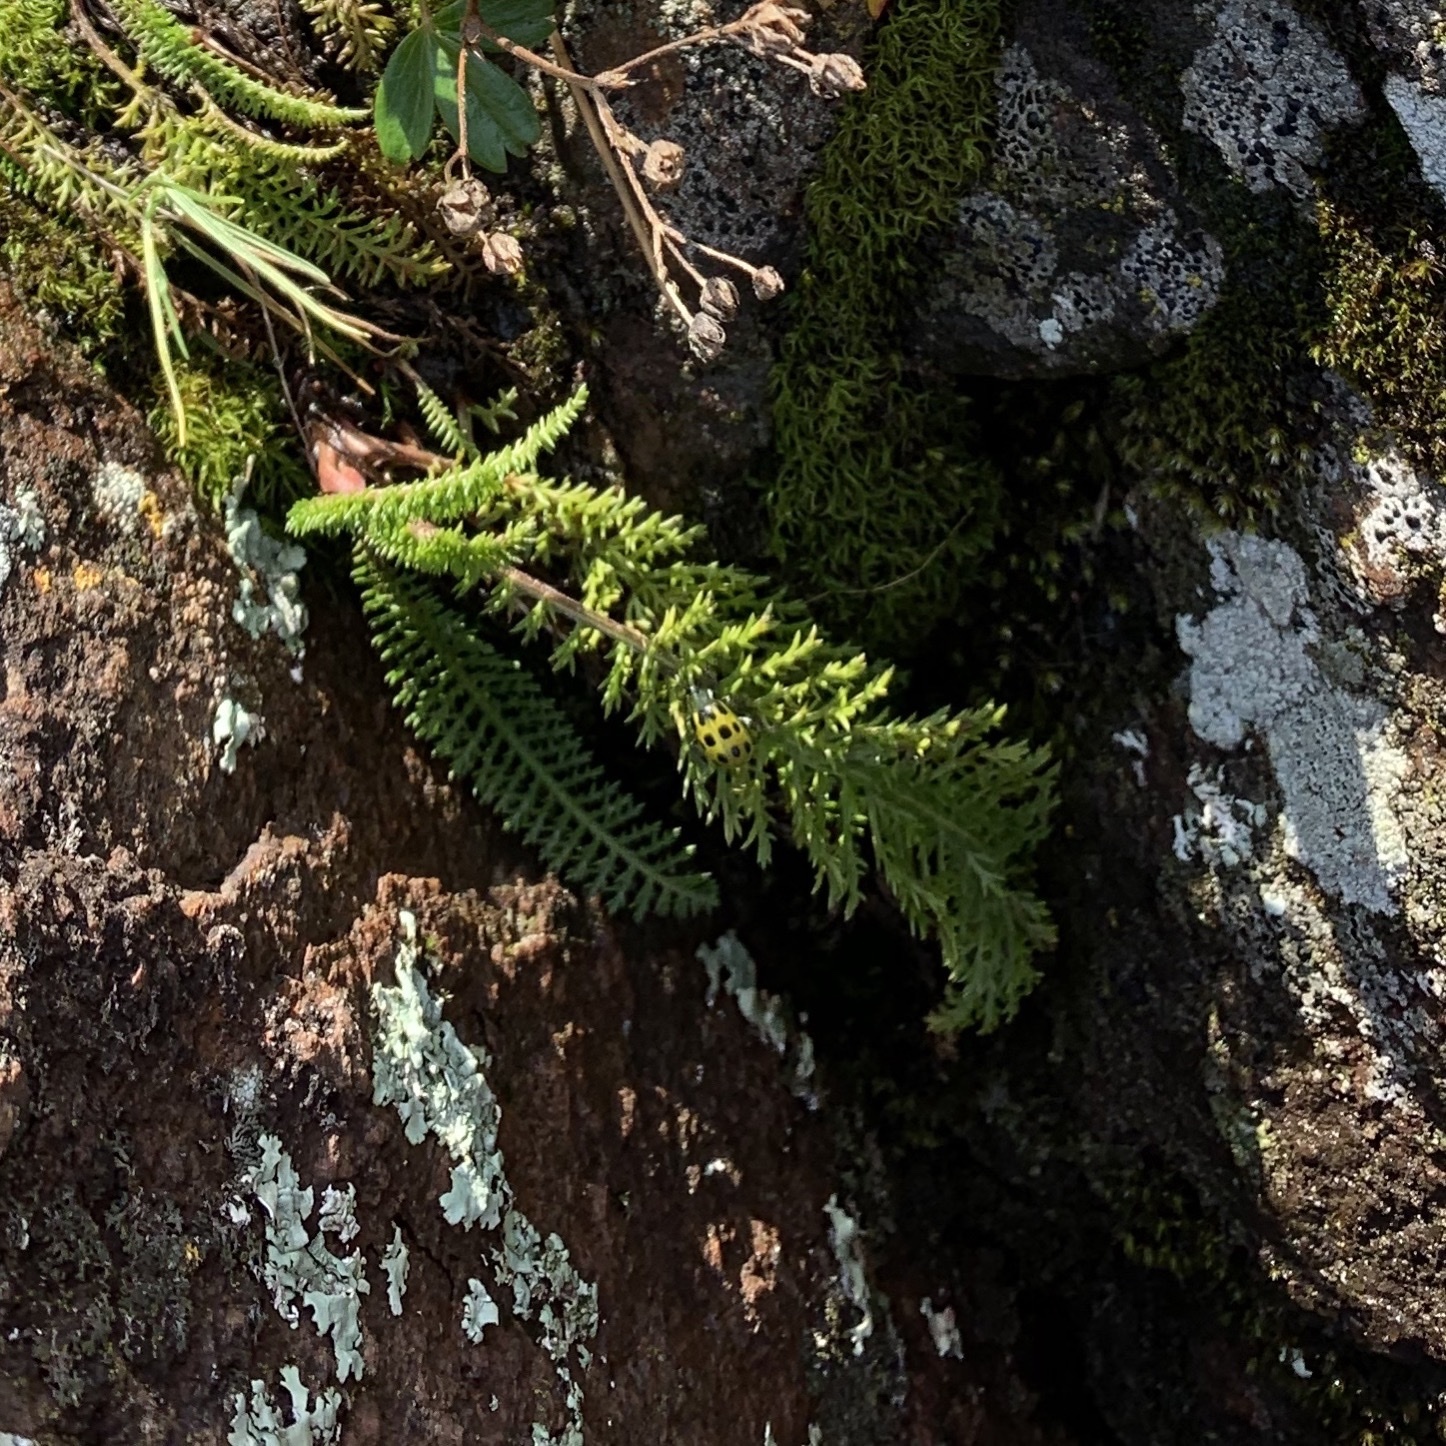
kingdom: Animalia
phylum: Arthropoda
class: Insecta
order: Coleoptera
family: Chrysomelidae
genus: Diabrotica
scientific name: Diabrotica undecimpunctata
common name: Spotted cucumber beetle
